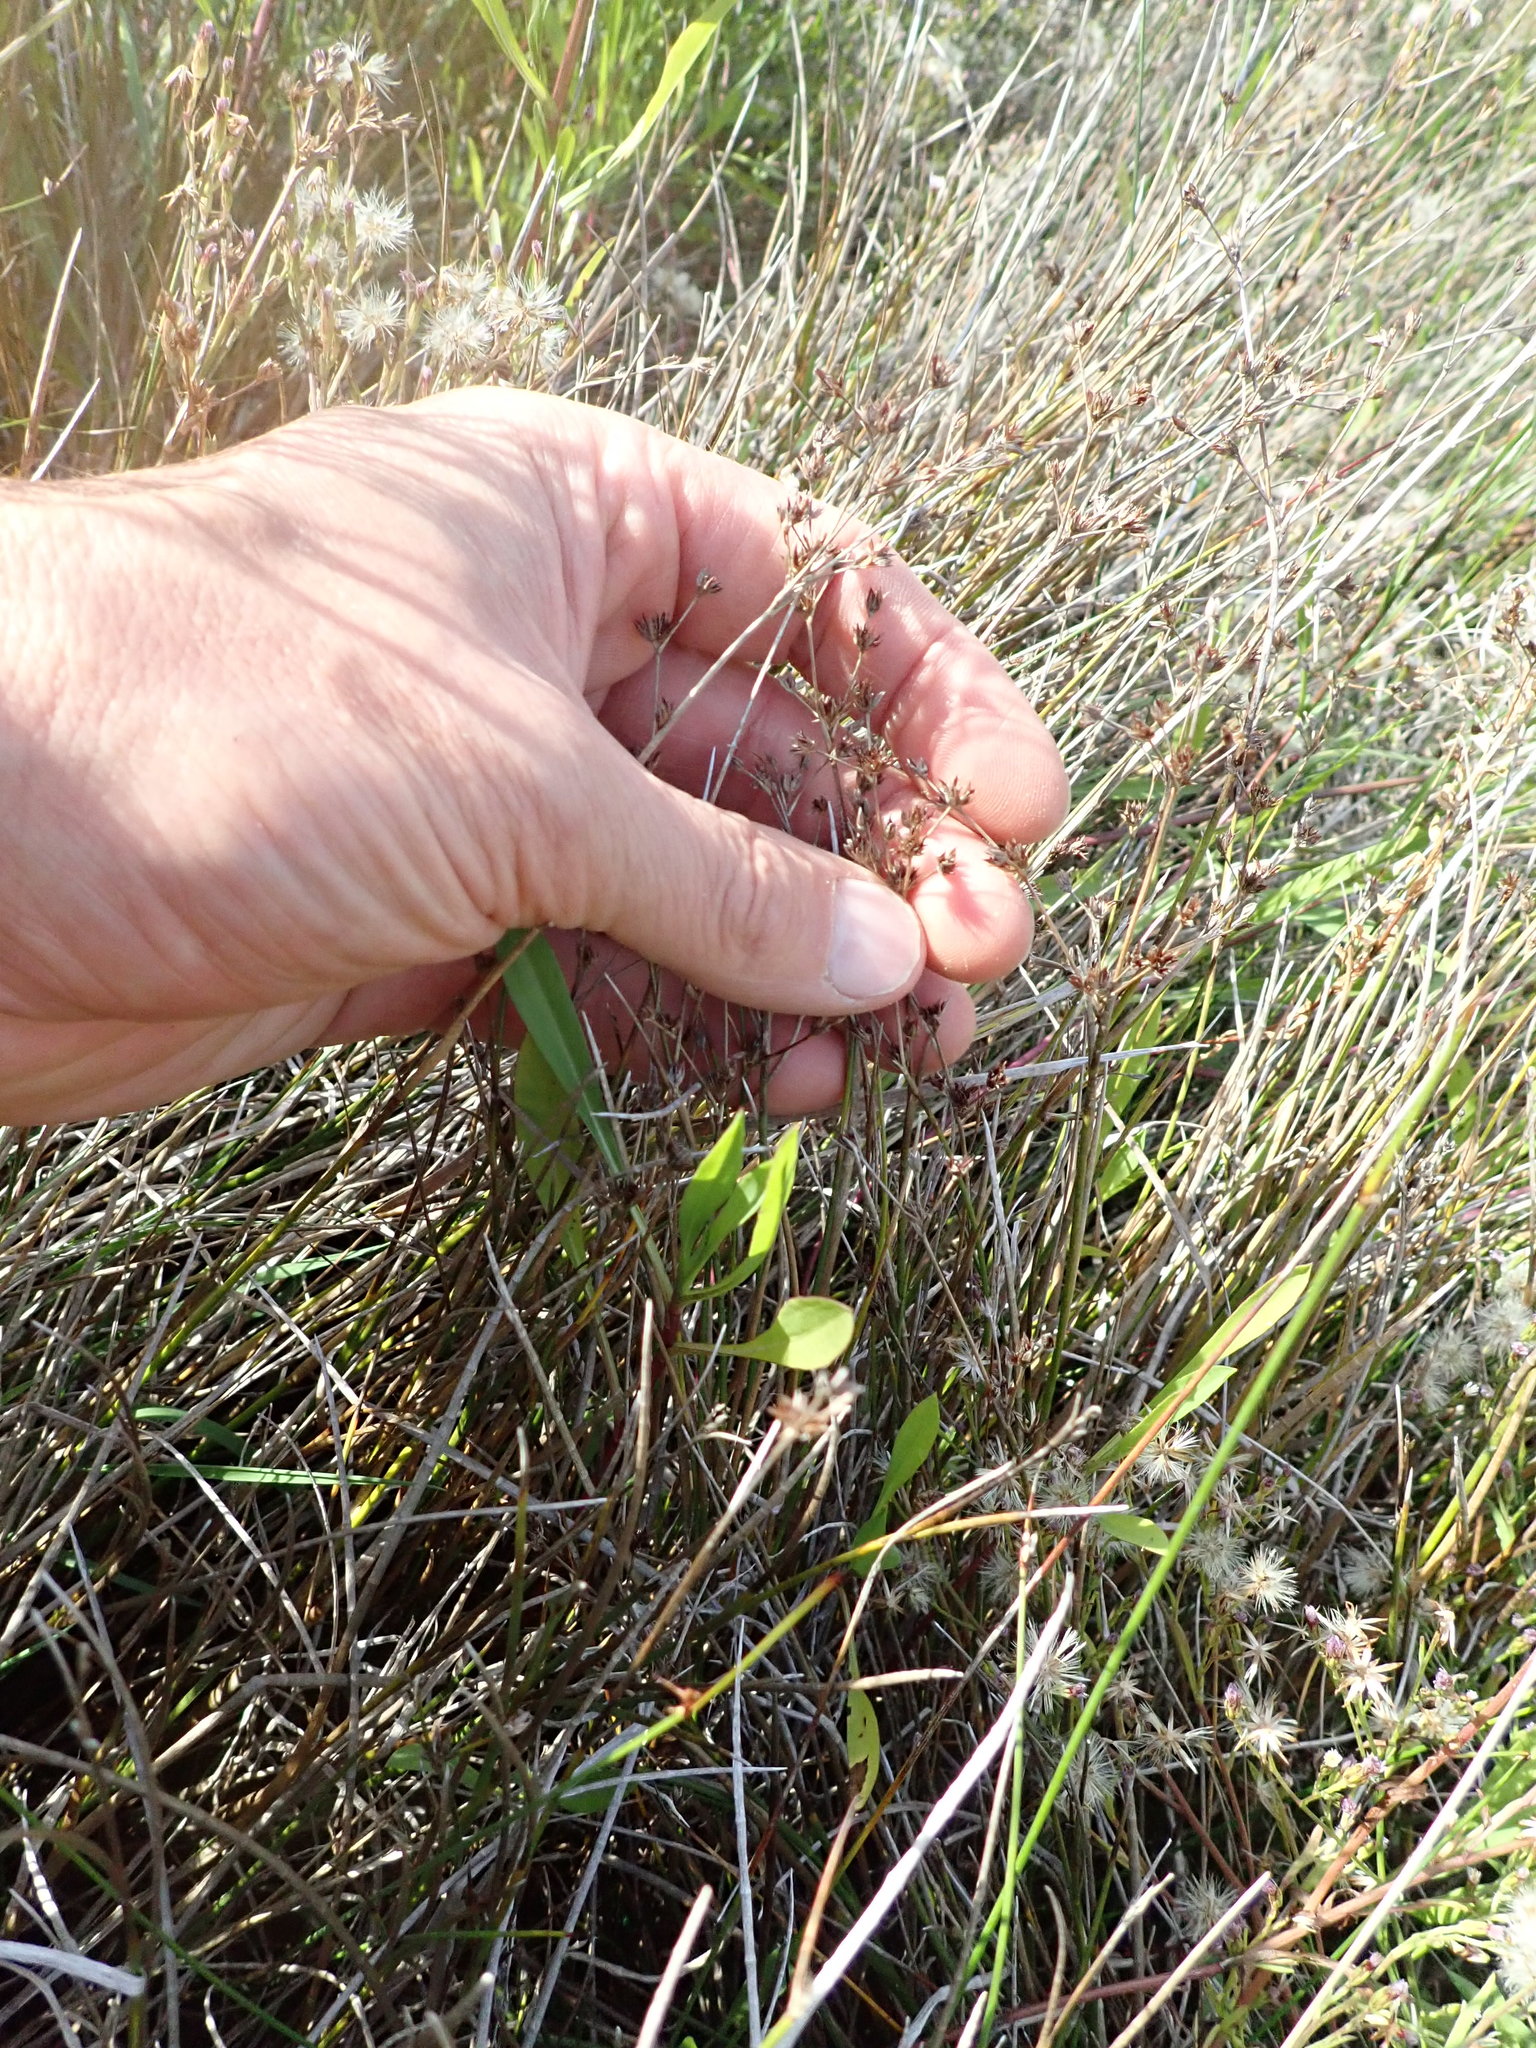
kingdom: Plantae
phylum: Tracheophyta
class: Liliopsida
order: Poales
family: Juncaceae
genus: Juncus
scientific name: Juncus articulatus
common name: Jointed rush
